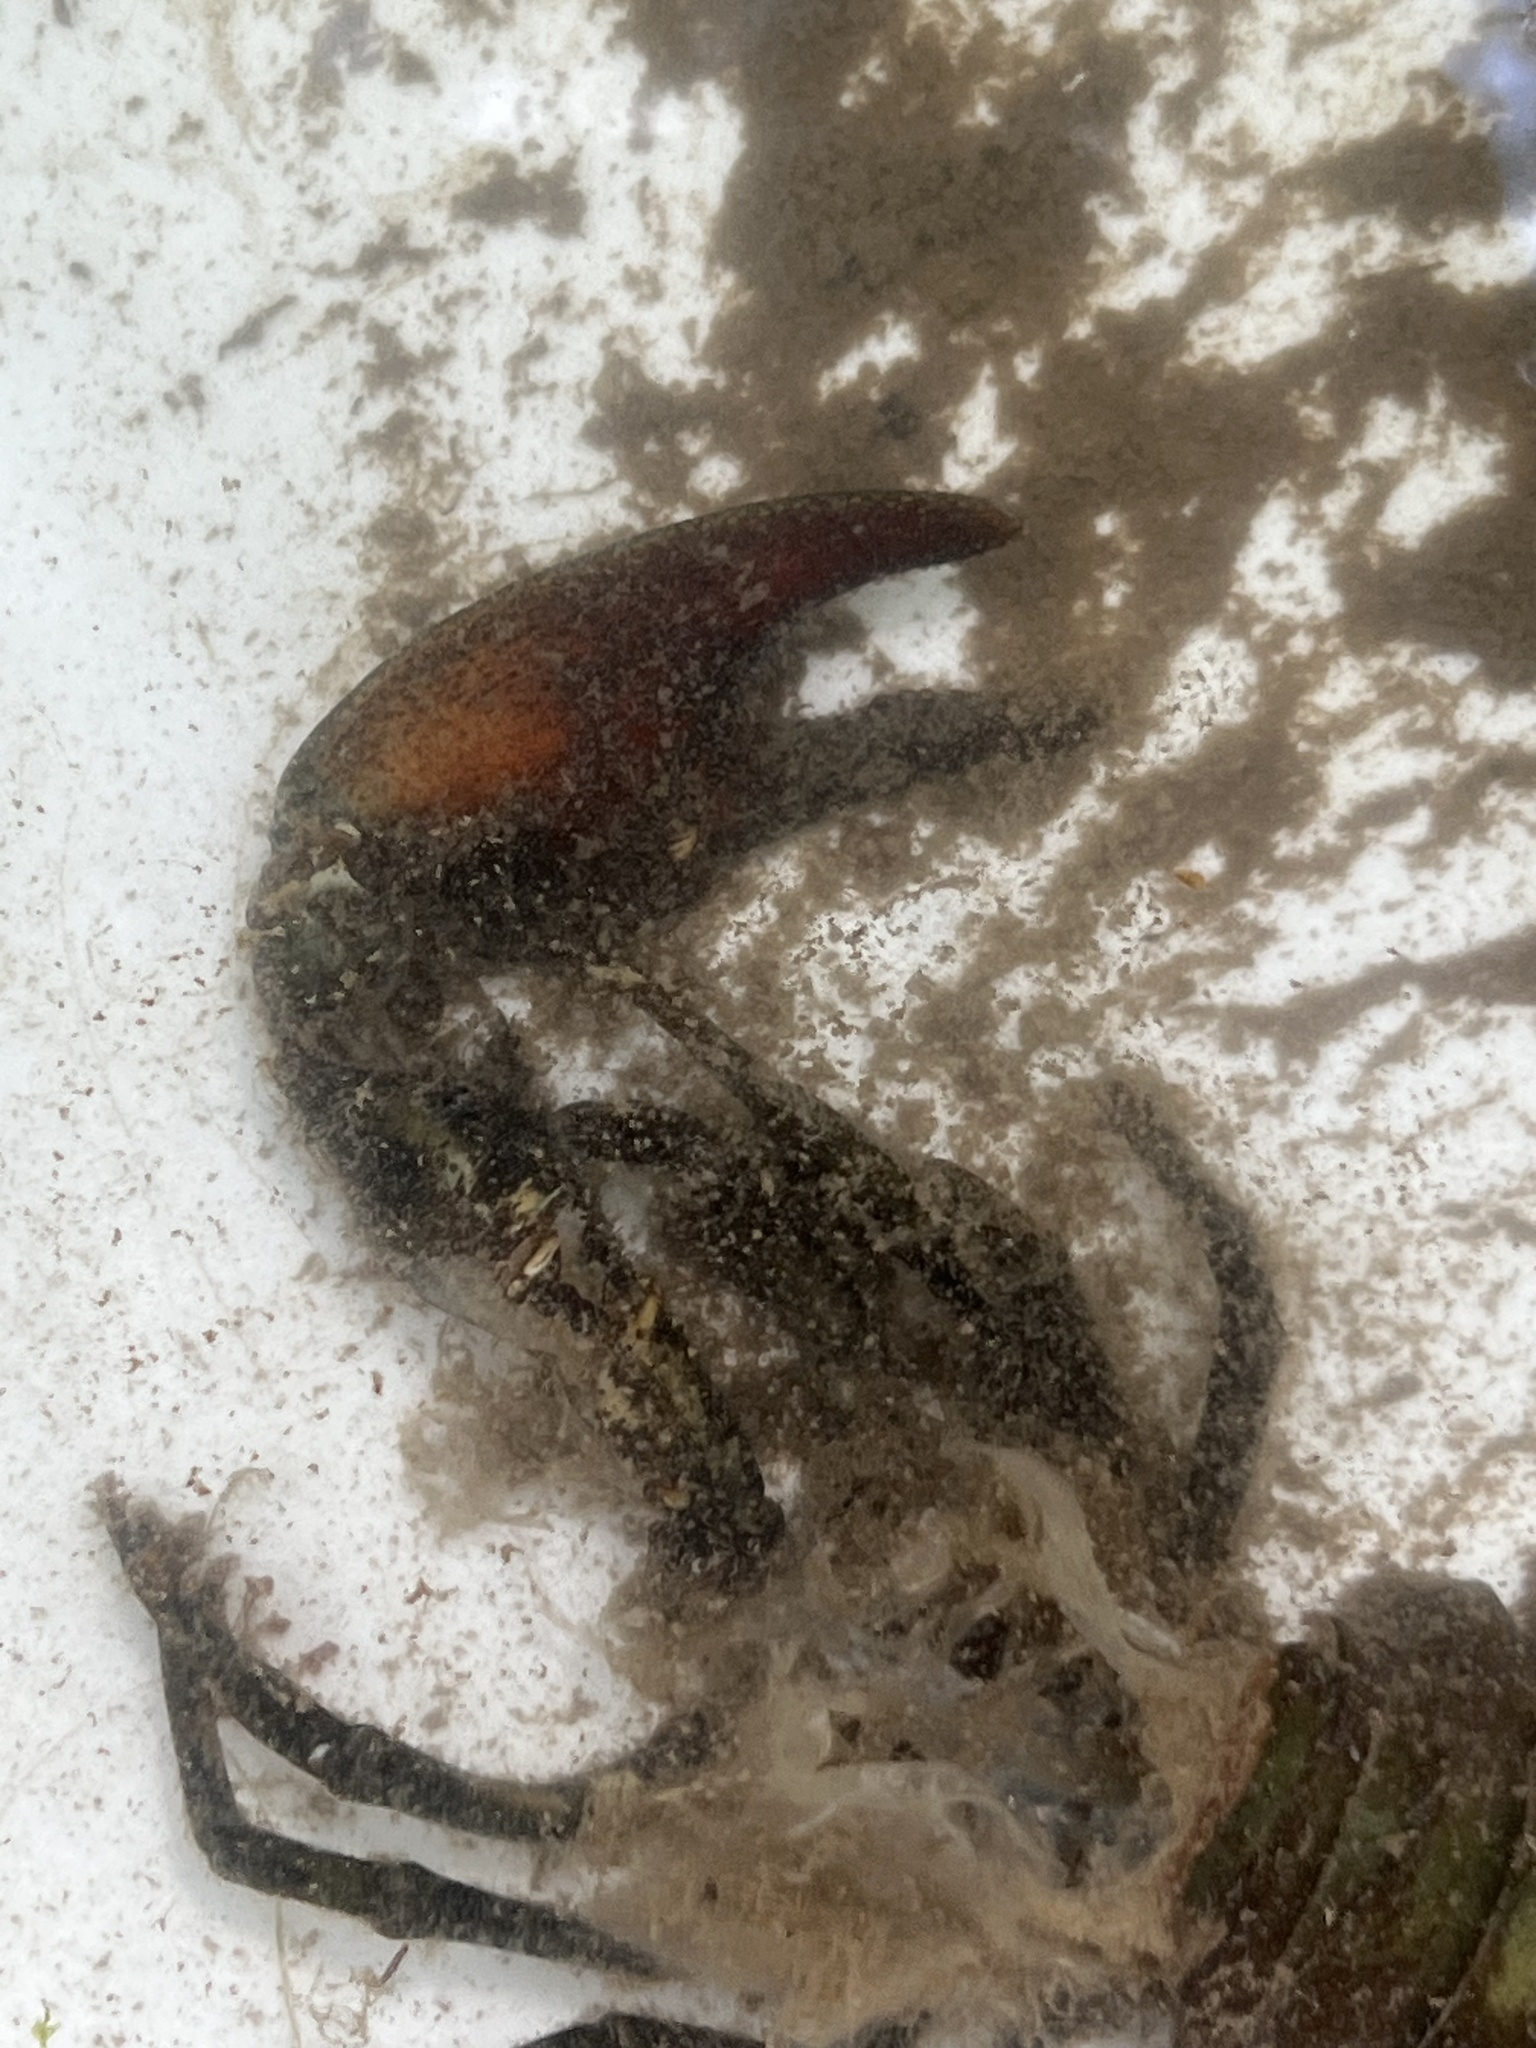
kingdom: Animalia
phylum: Arthropoda
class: Malacostraca
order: Decapoda
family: Astacidae
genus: Pacifastacus
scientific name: Pacifastacus leniusculus
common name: Signal crayfish
